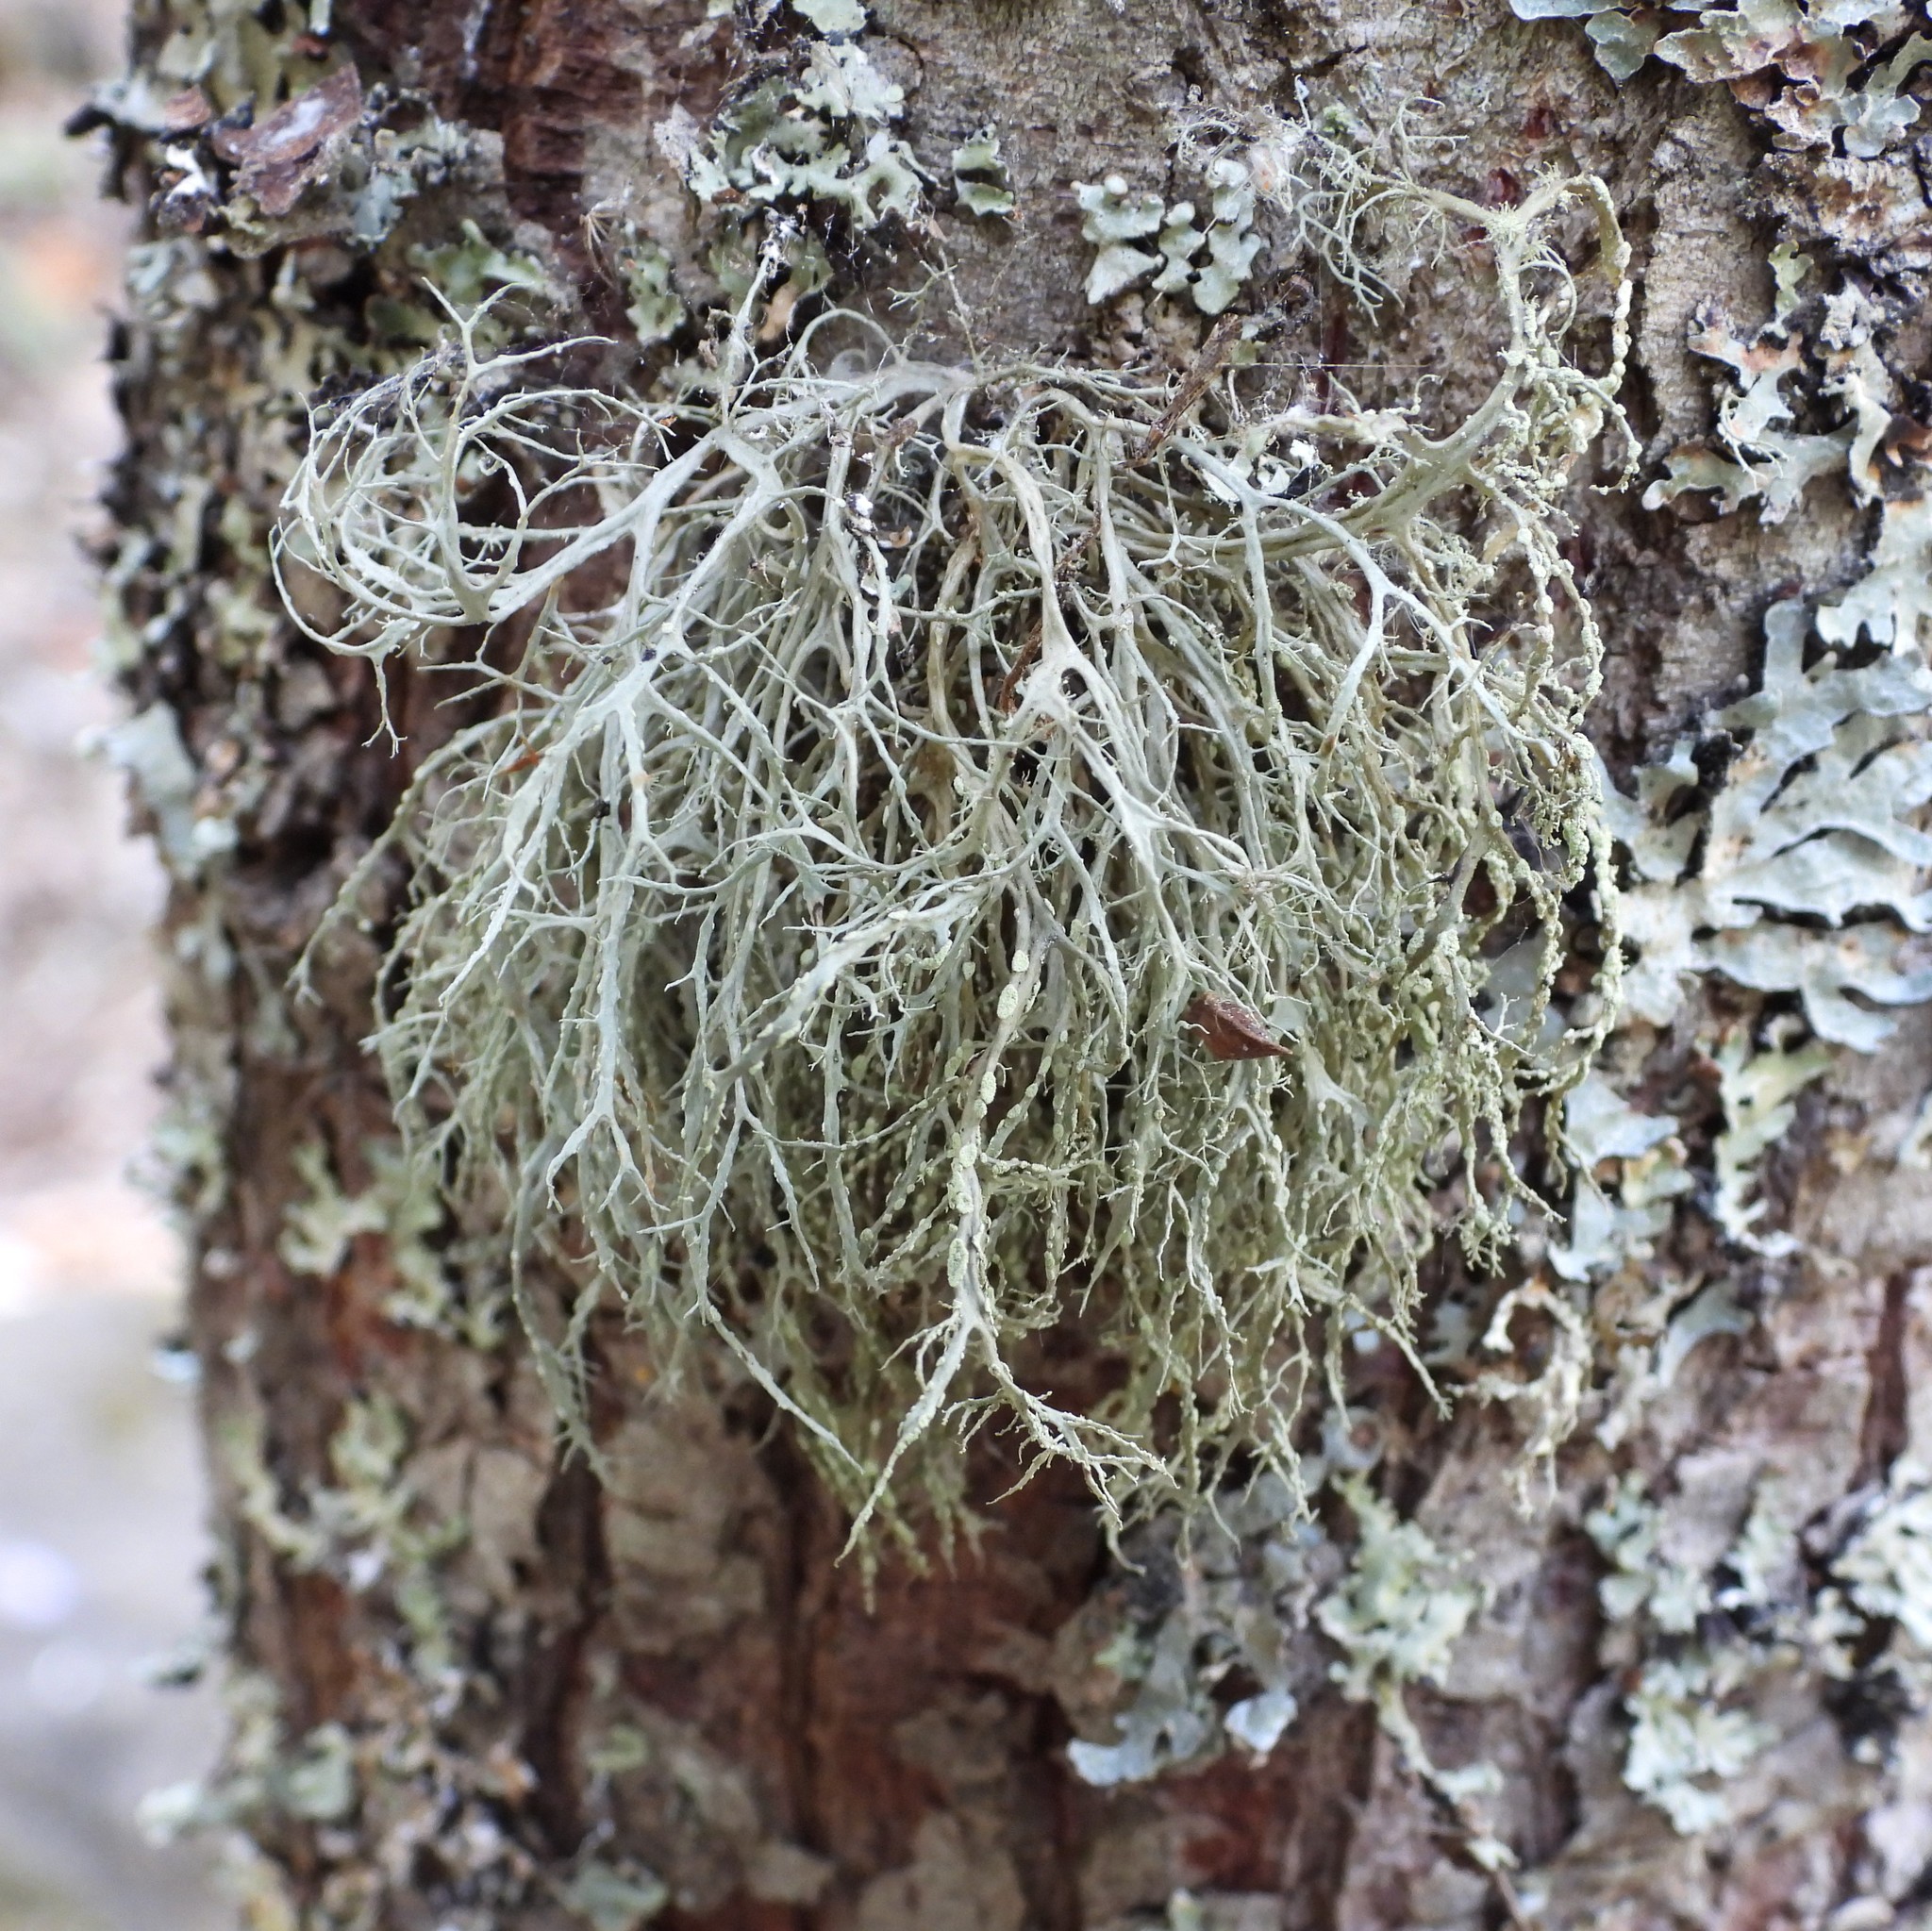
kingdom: Fungi
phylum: Ascomycota
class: Lecanoromycetes
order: Lecanorales
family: Ramalinaceae
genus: Ramalina
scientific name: Ramalina farinacea
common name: Farinose cartilage lichen
